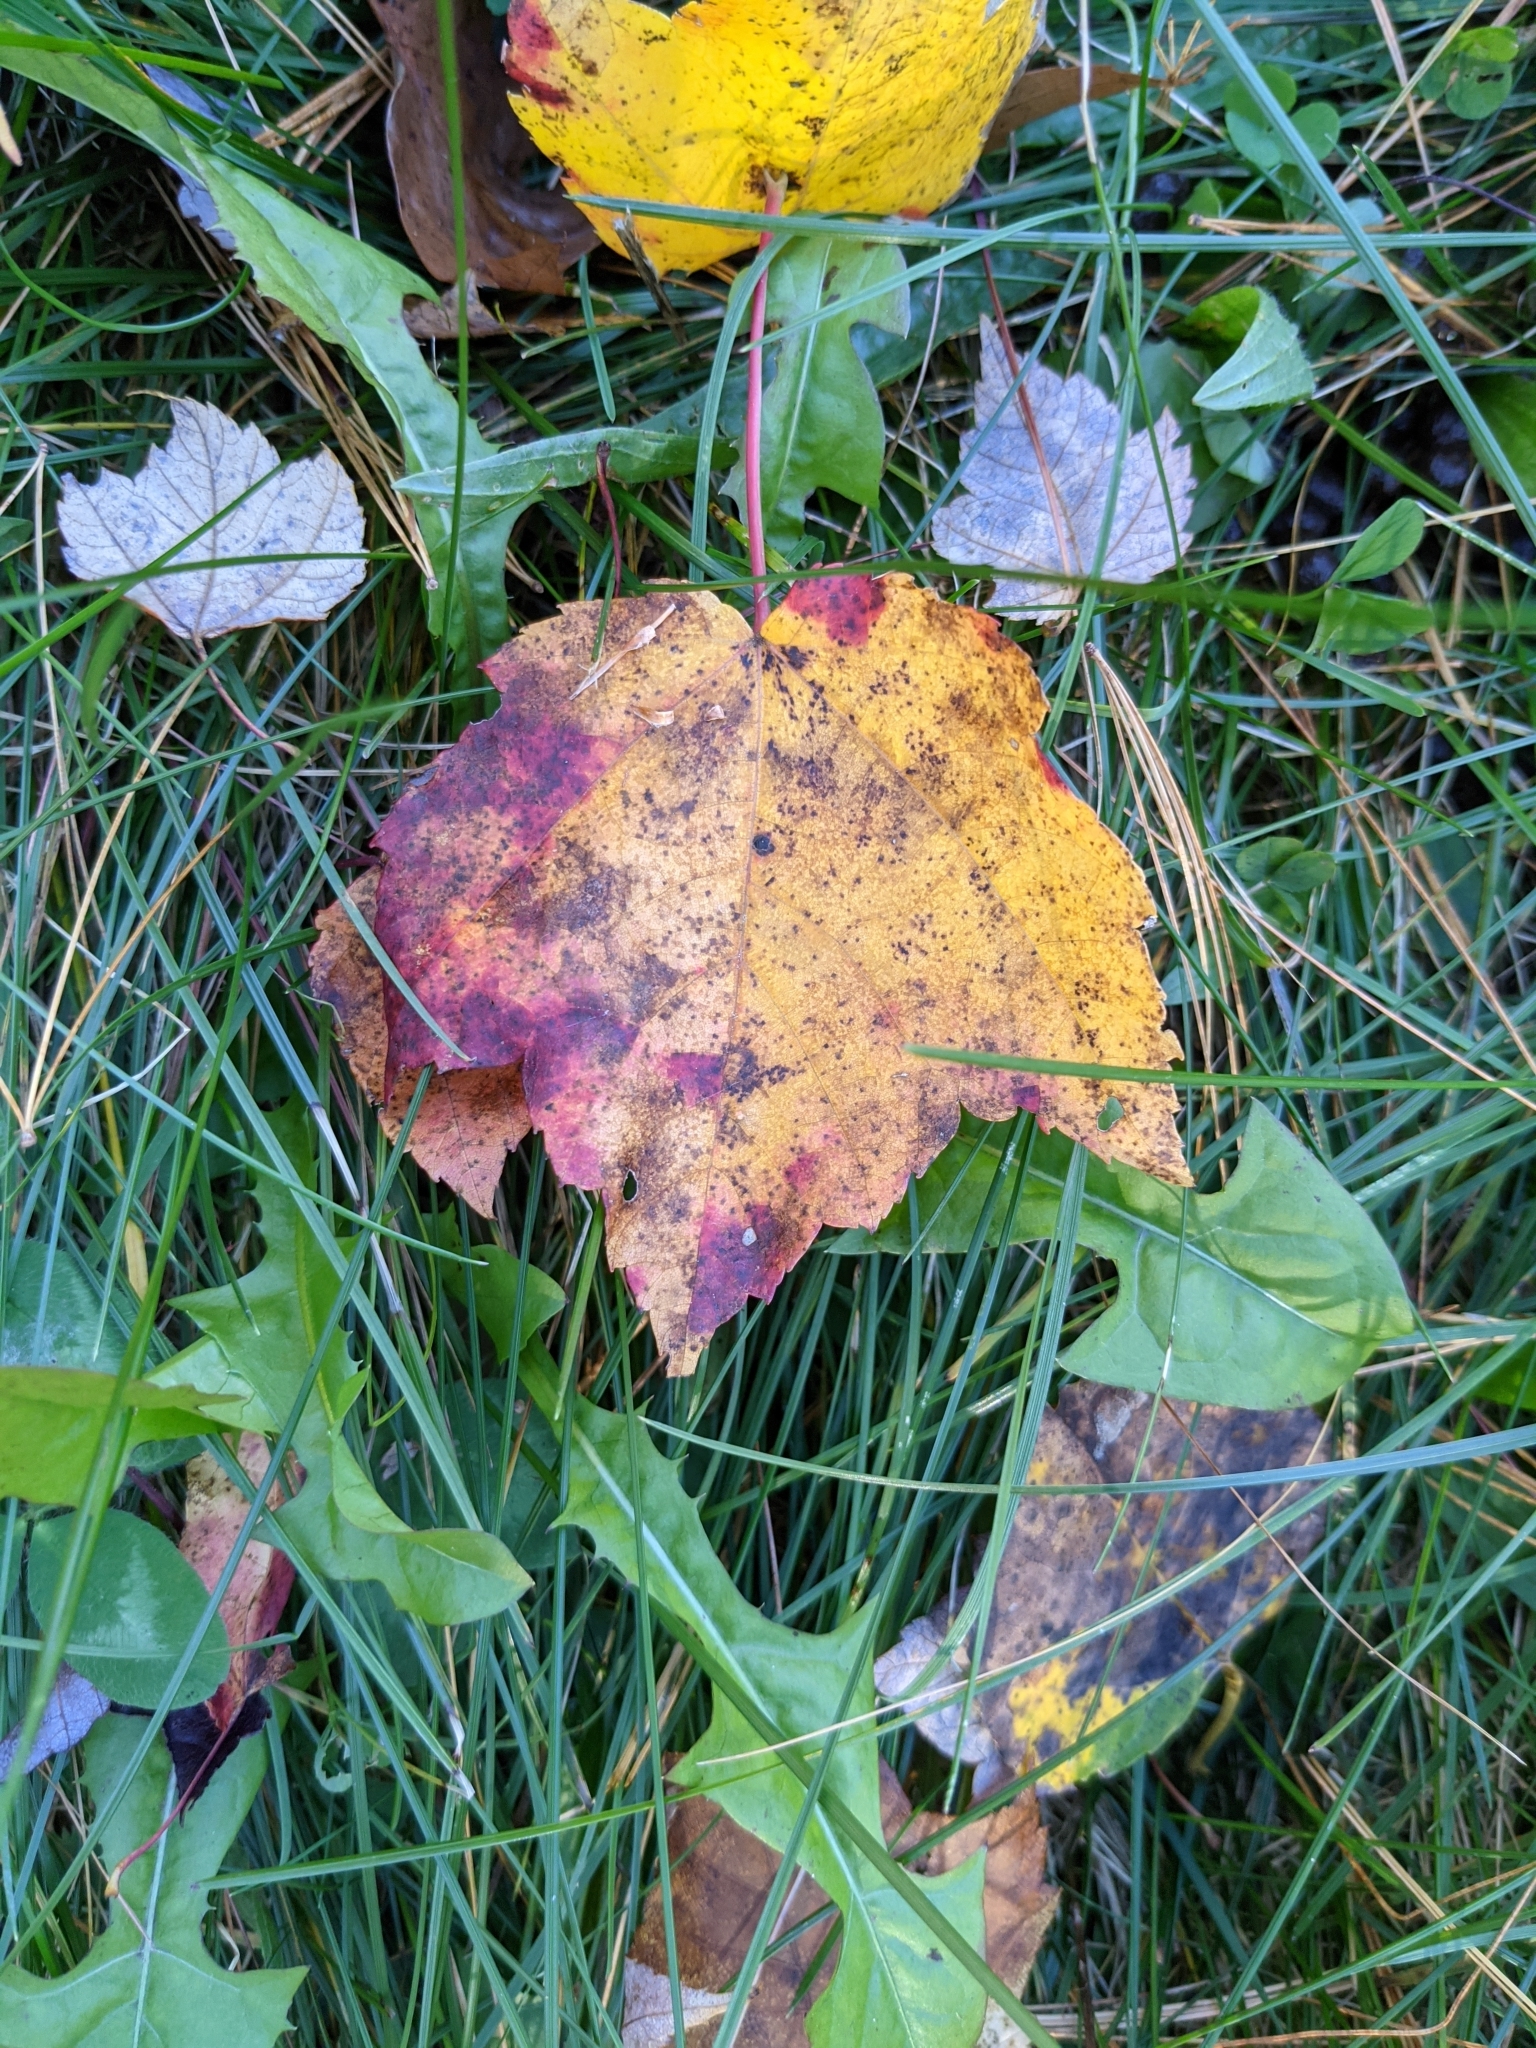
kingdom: Plantae
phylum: Tracheophyta
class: Magnoliopsida
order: Sapindales
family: Sapindaceae
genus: Acer
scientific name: Acer rubrum
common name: Red maple
